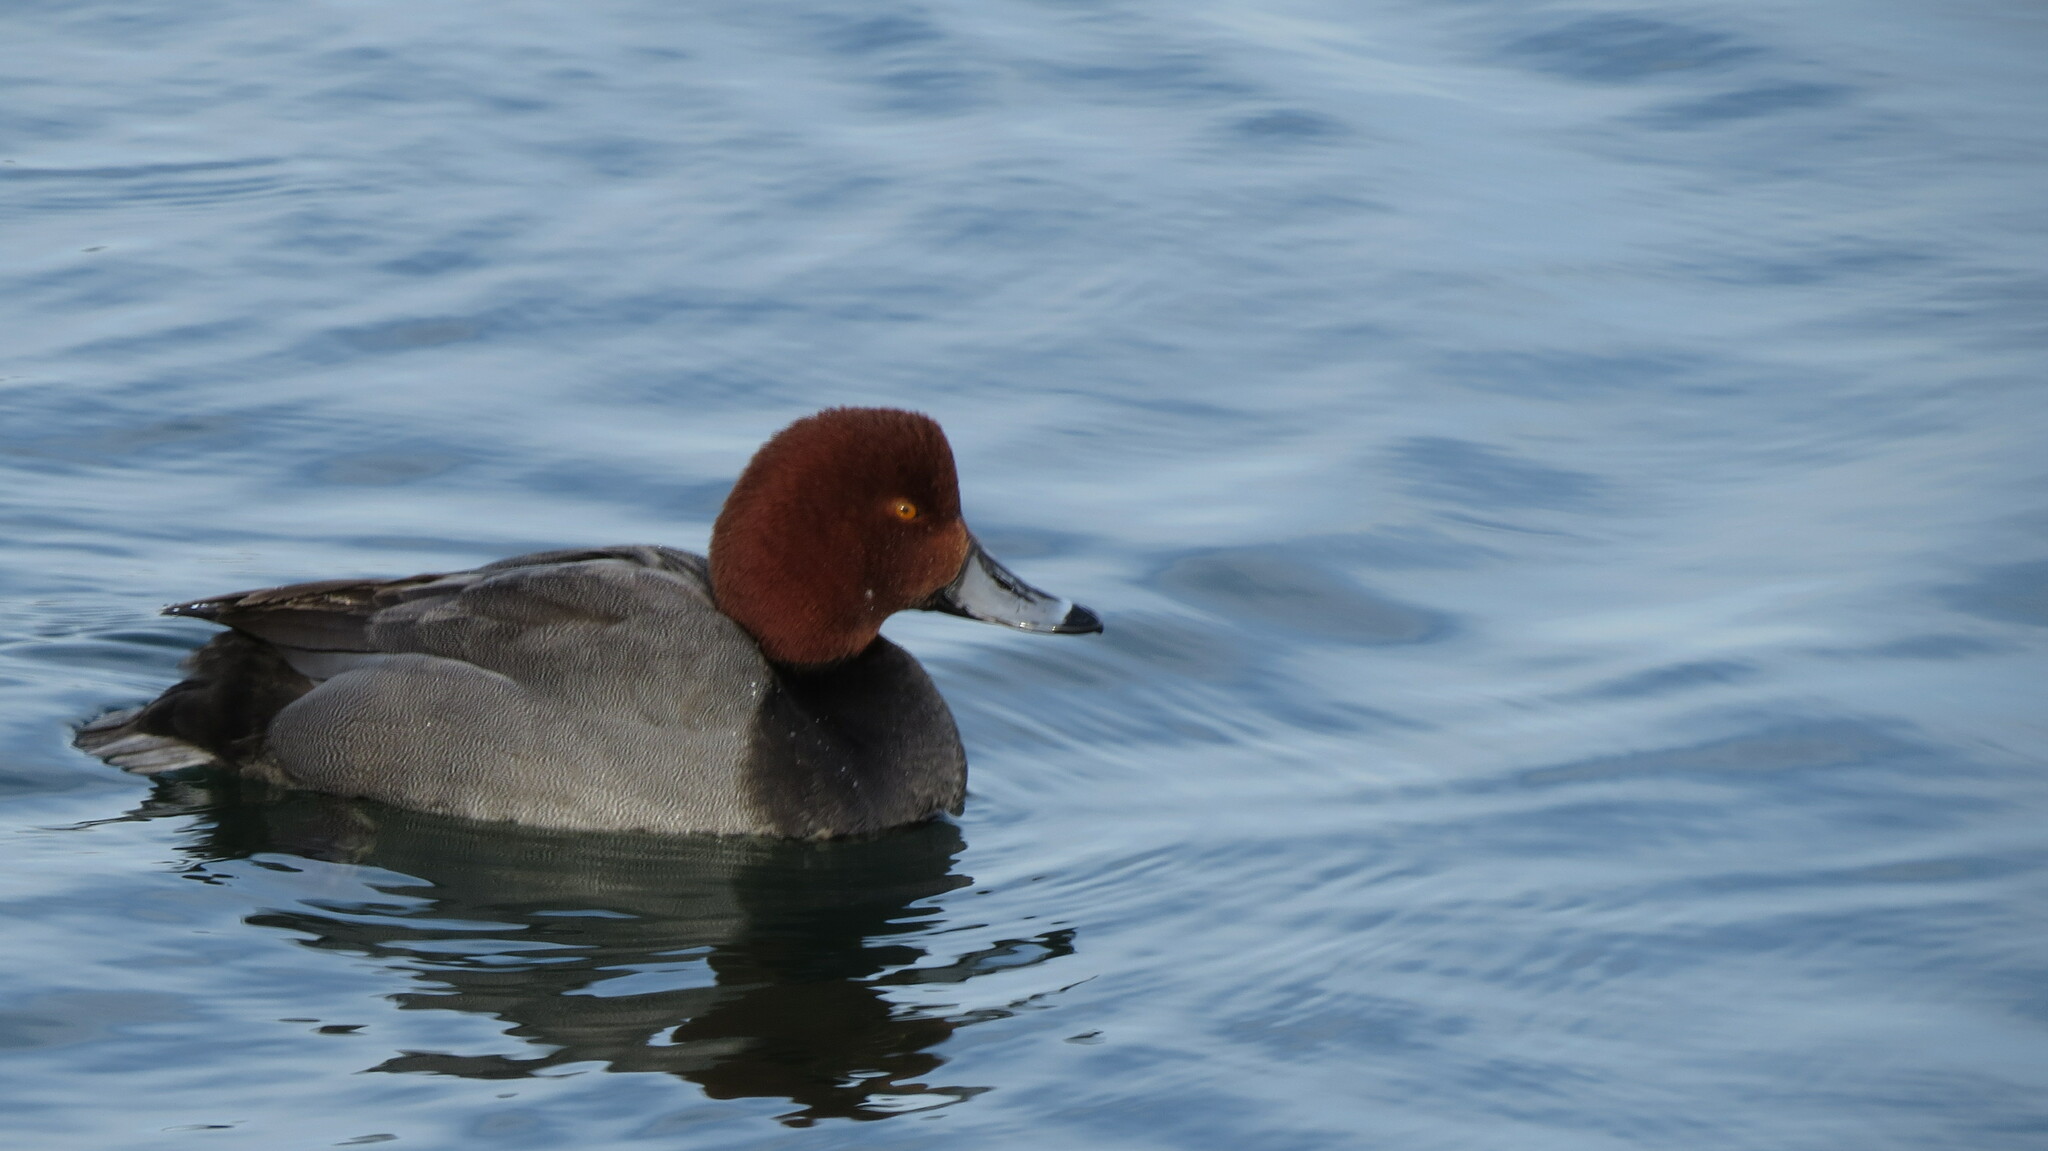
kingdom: Animalia
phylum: Chordata
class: Aves
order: Anseriformes
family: Anatidae
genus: Aythya
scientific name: Aythya americana
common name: Redhead
